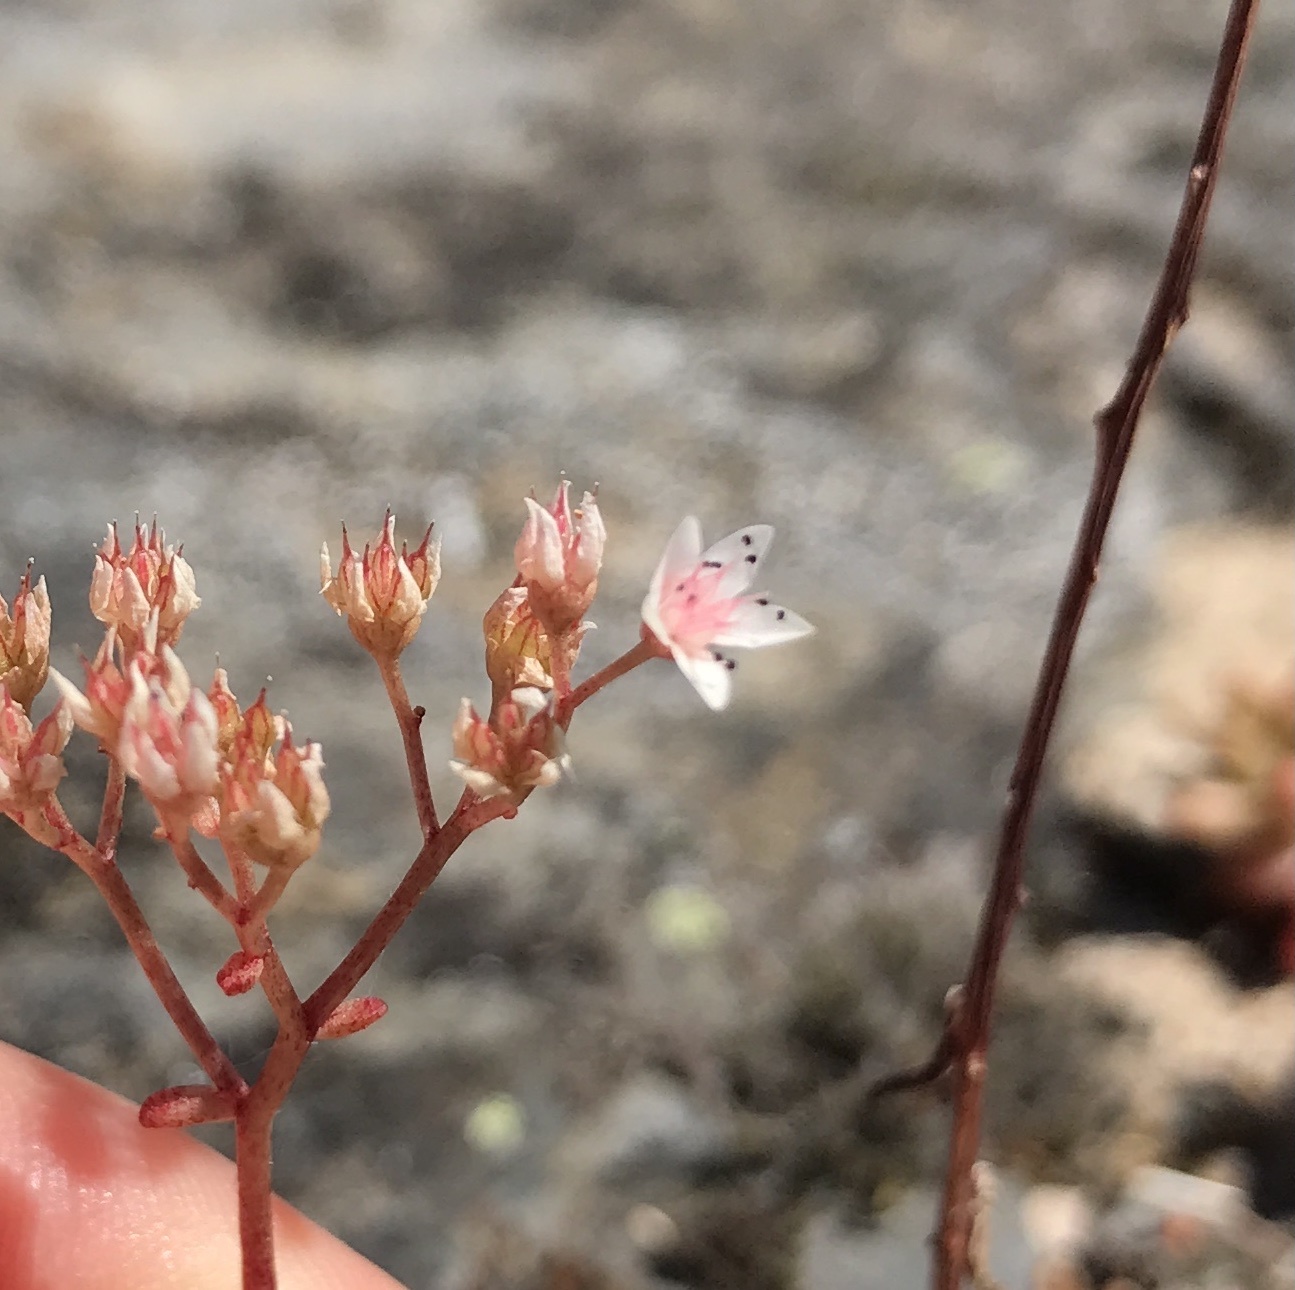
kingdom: Plantae
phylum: Tracheophyta
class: Magnoliopsida
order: Saxifragales
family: Crassulaceae
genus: Sedum
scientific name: Sedum album
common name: White stonecrop
